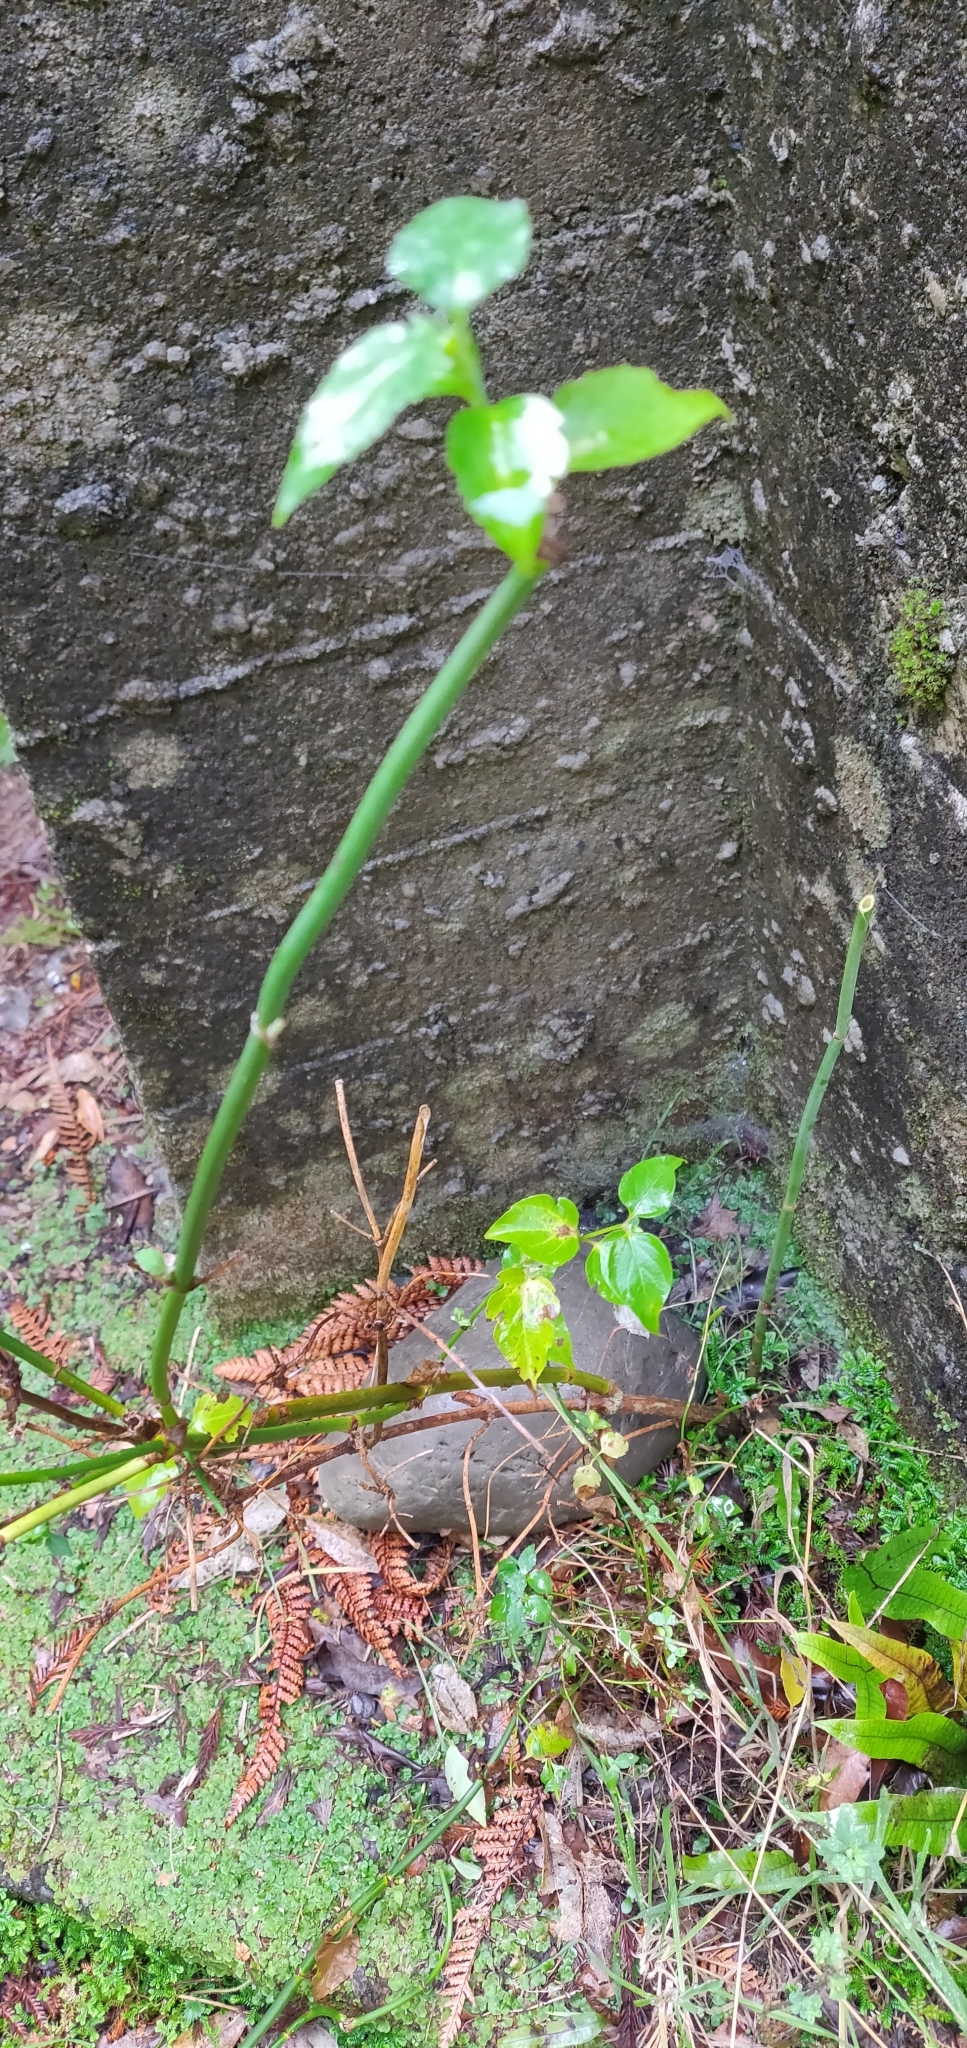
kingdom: Plantae
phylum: Tracheophyta
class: Magnoliopsida
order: Dipsacales
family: Caprifoliaceae
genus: Leycesteria
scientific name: Leycesteria formosa
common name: Himalayan honeysuckle
